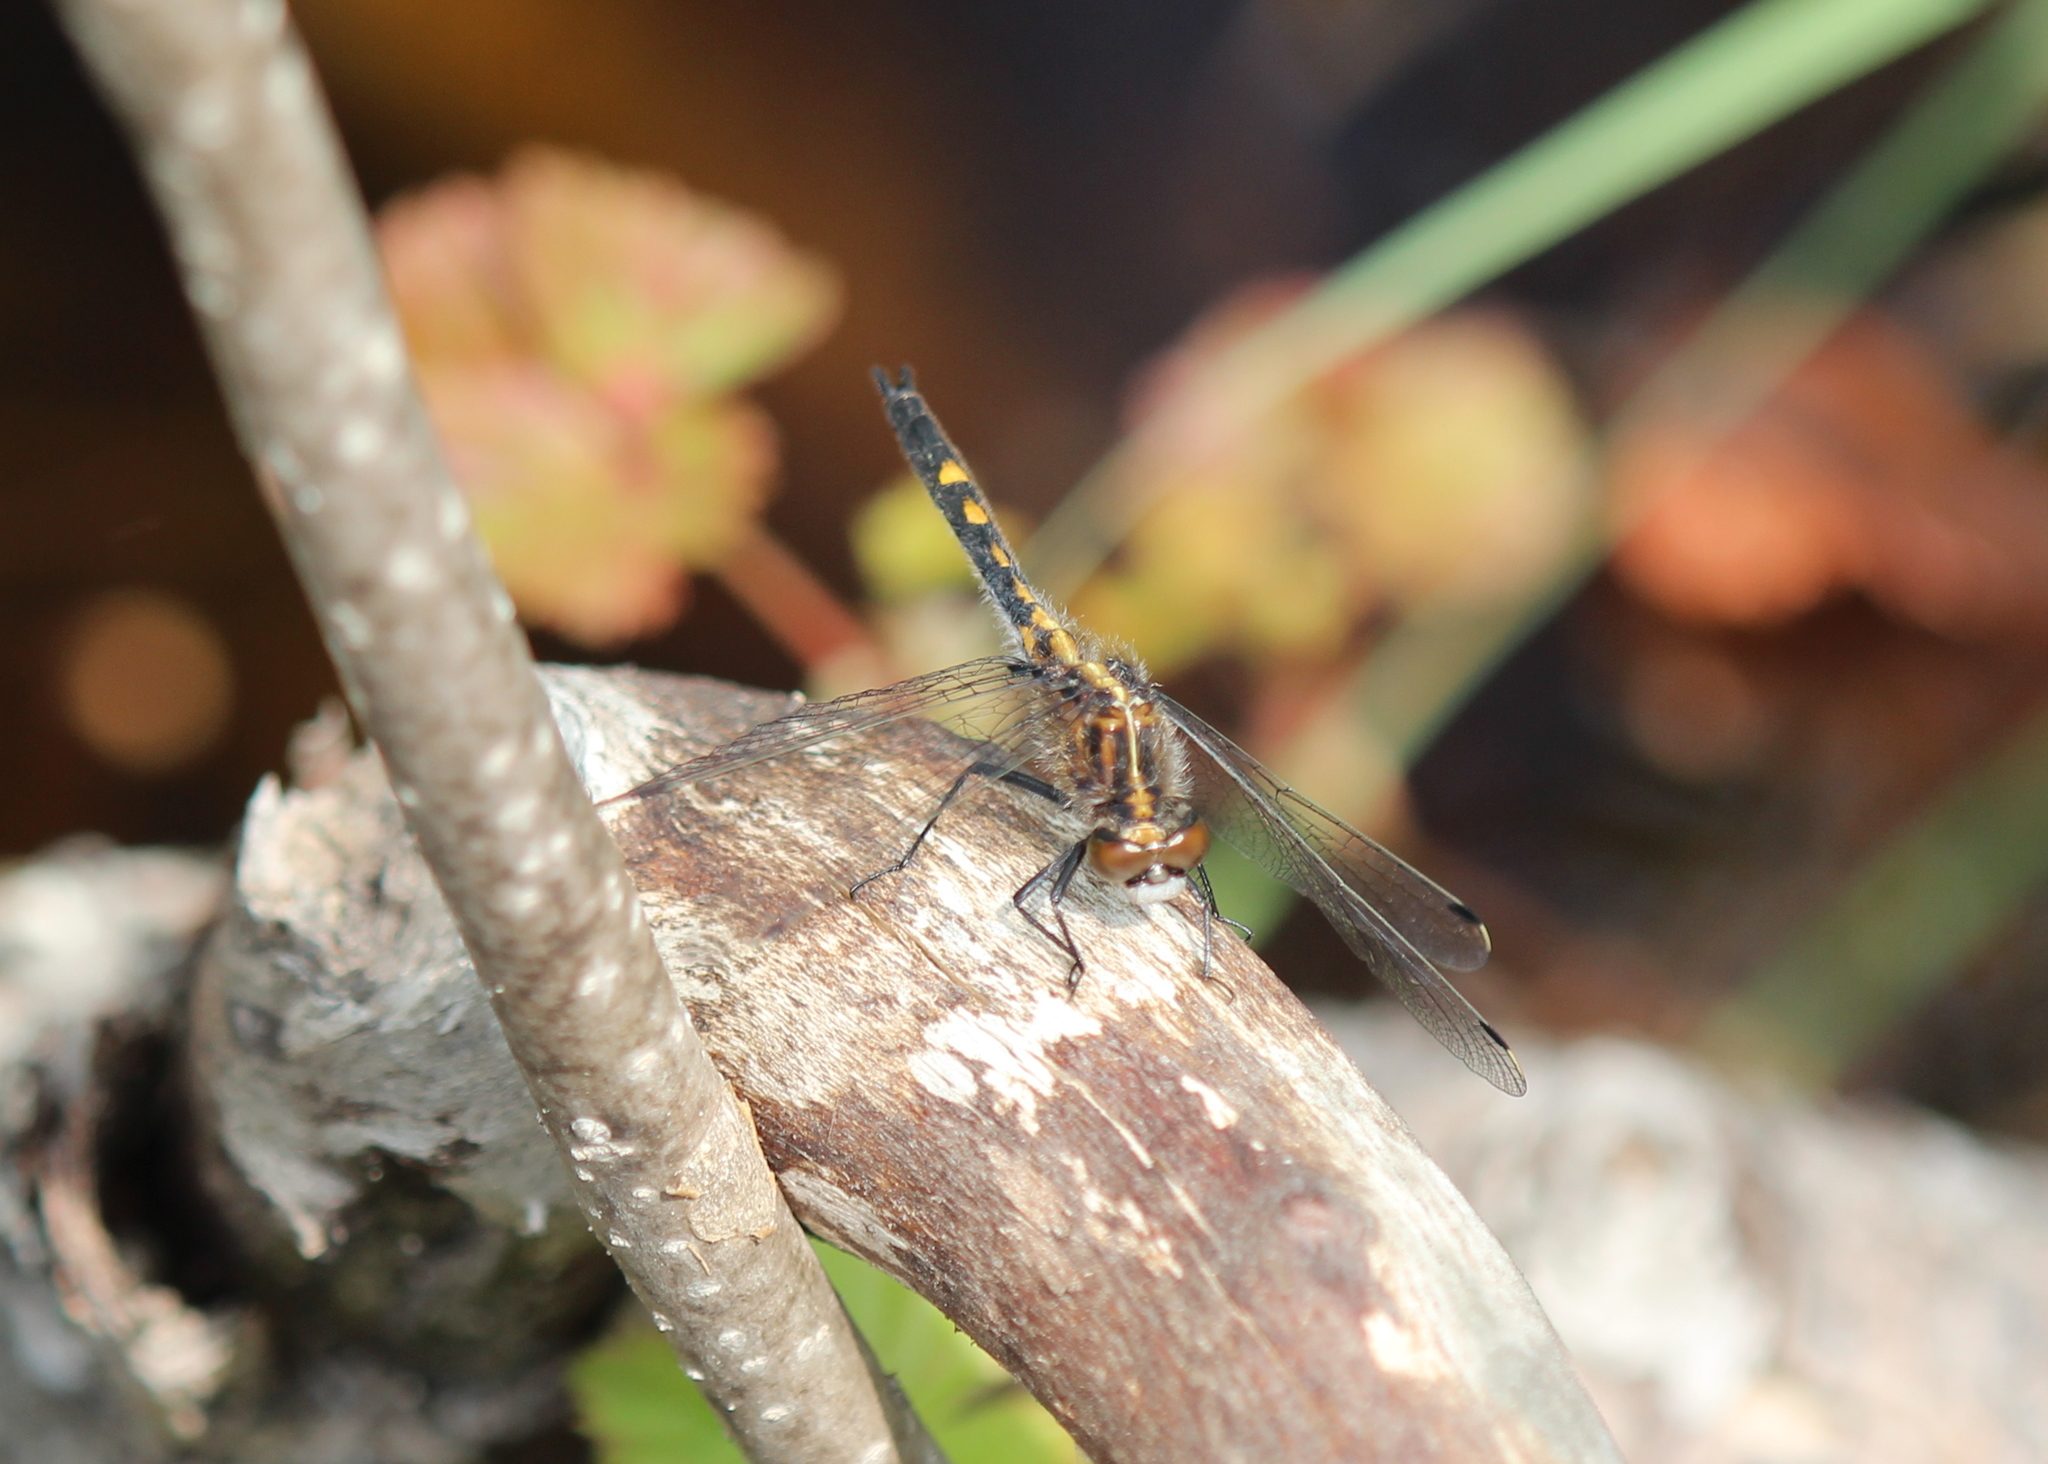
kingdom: Animalia
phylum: Arthropoda
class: Insecta
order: Odonata
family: Libellulidae
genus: Leucorrhinia
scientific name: Leucorrhinia intacta
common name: Dot-tailed whiteface
